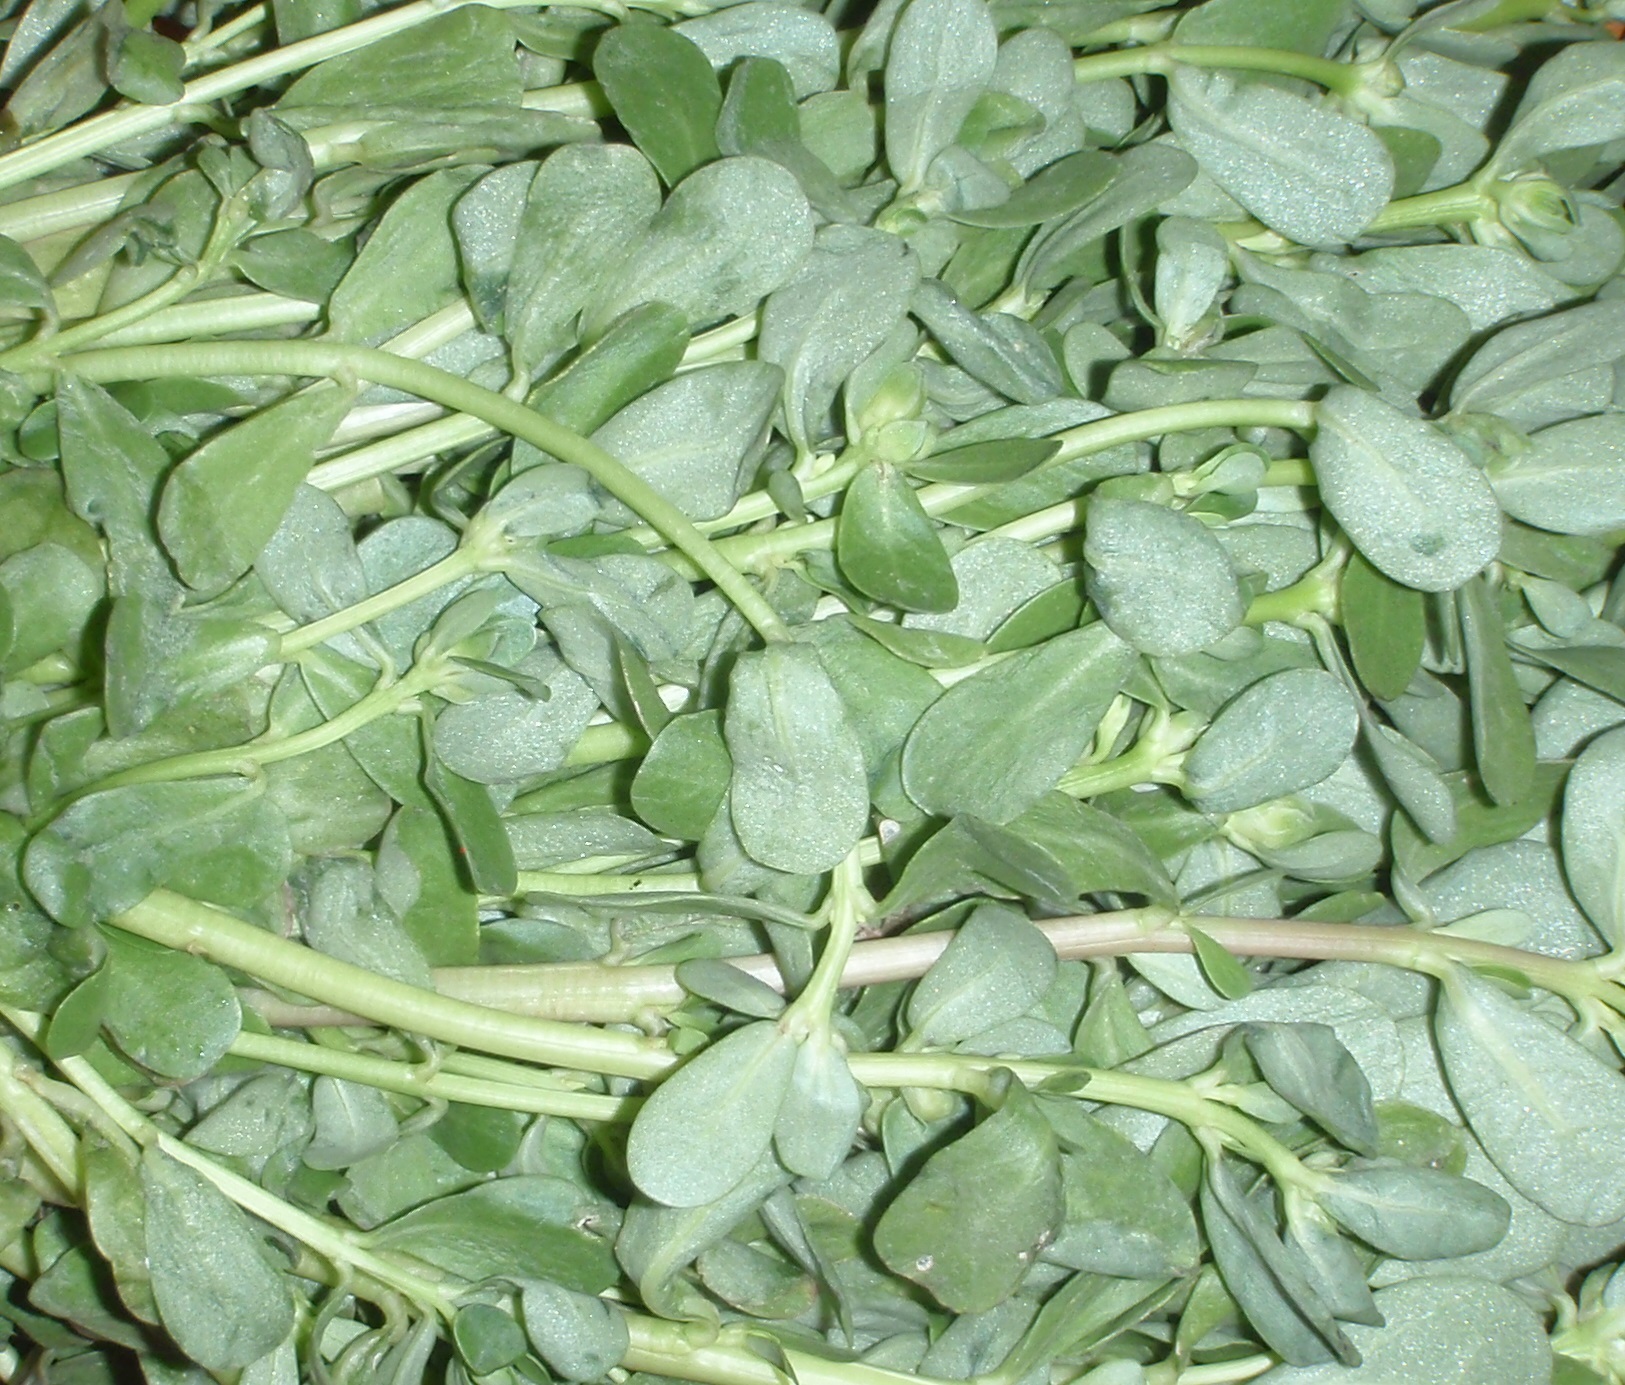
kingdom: Plantae
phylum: Tracheophyta
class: Magnoliopsida
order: Caryophyllales
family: Portulacaceae
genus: Portulaca
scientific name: Portulaca oleracea
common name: Common purslane
